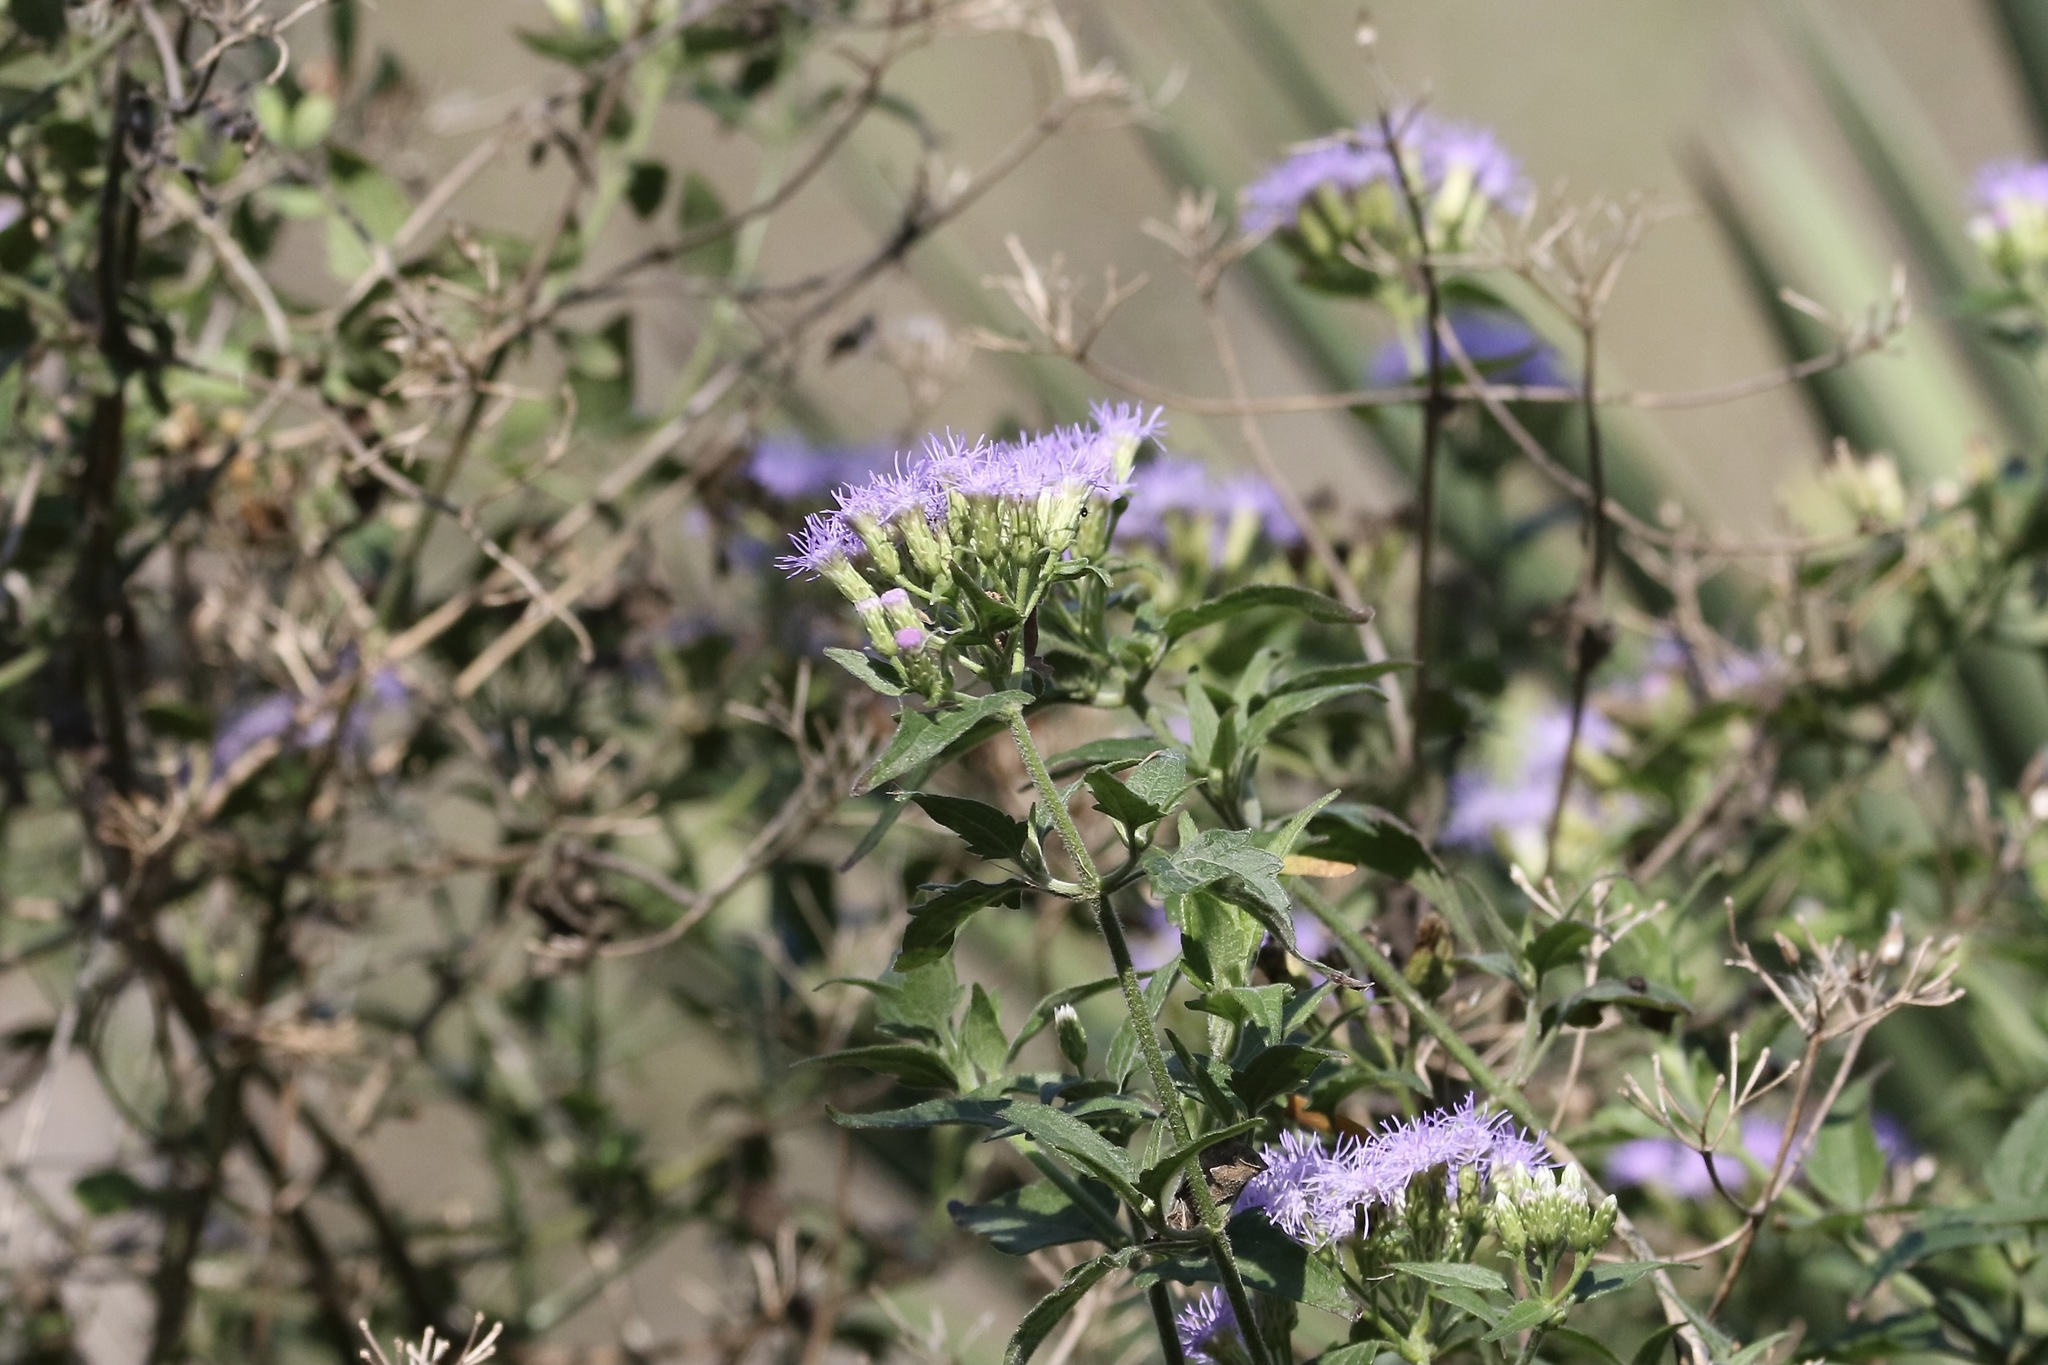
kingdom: Plantae
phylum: Tracheophyta
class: Magnoliopsida
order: Asterales
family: Asteraceae
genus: Chromolaena
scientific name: Chromolaena odorata
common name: Siamweed
